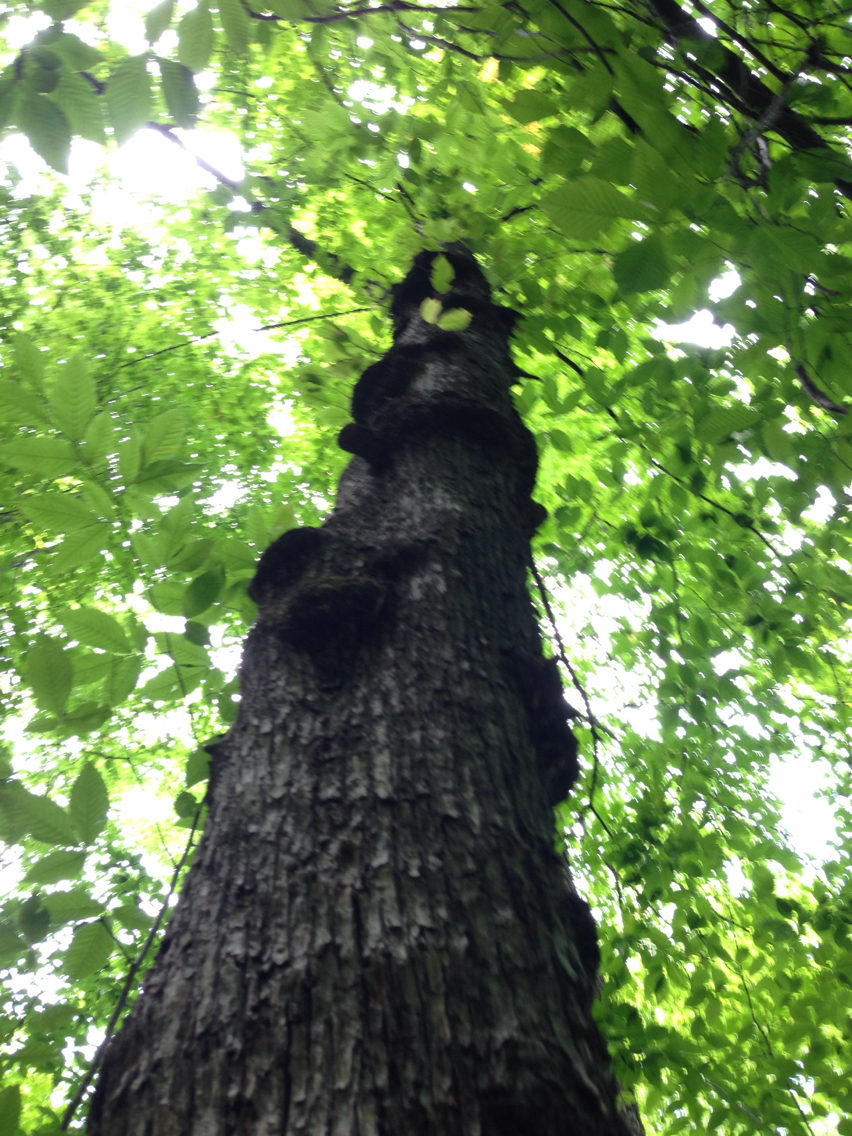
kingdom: Plantae
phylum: Tracheophyta
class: Magnoliopsida
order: Fagales
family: Betulaceae
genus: Ostrya
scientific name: Ostrya virginiana
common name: Ironwood
